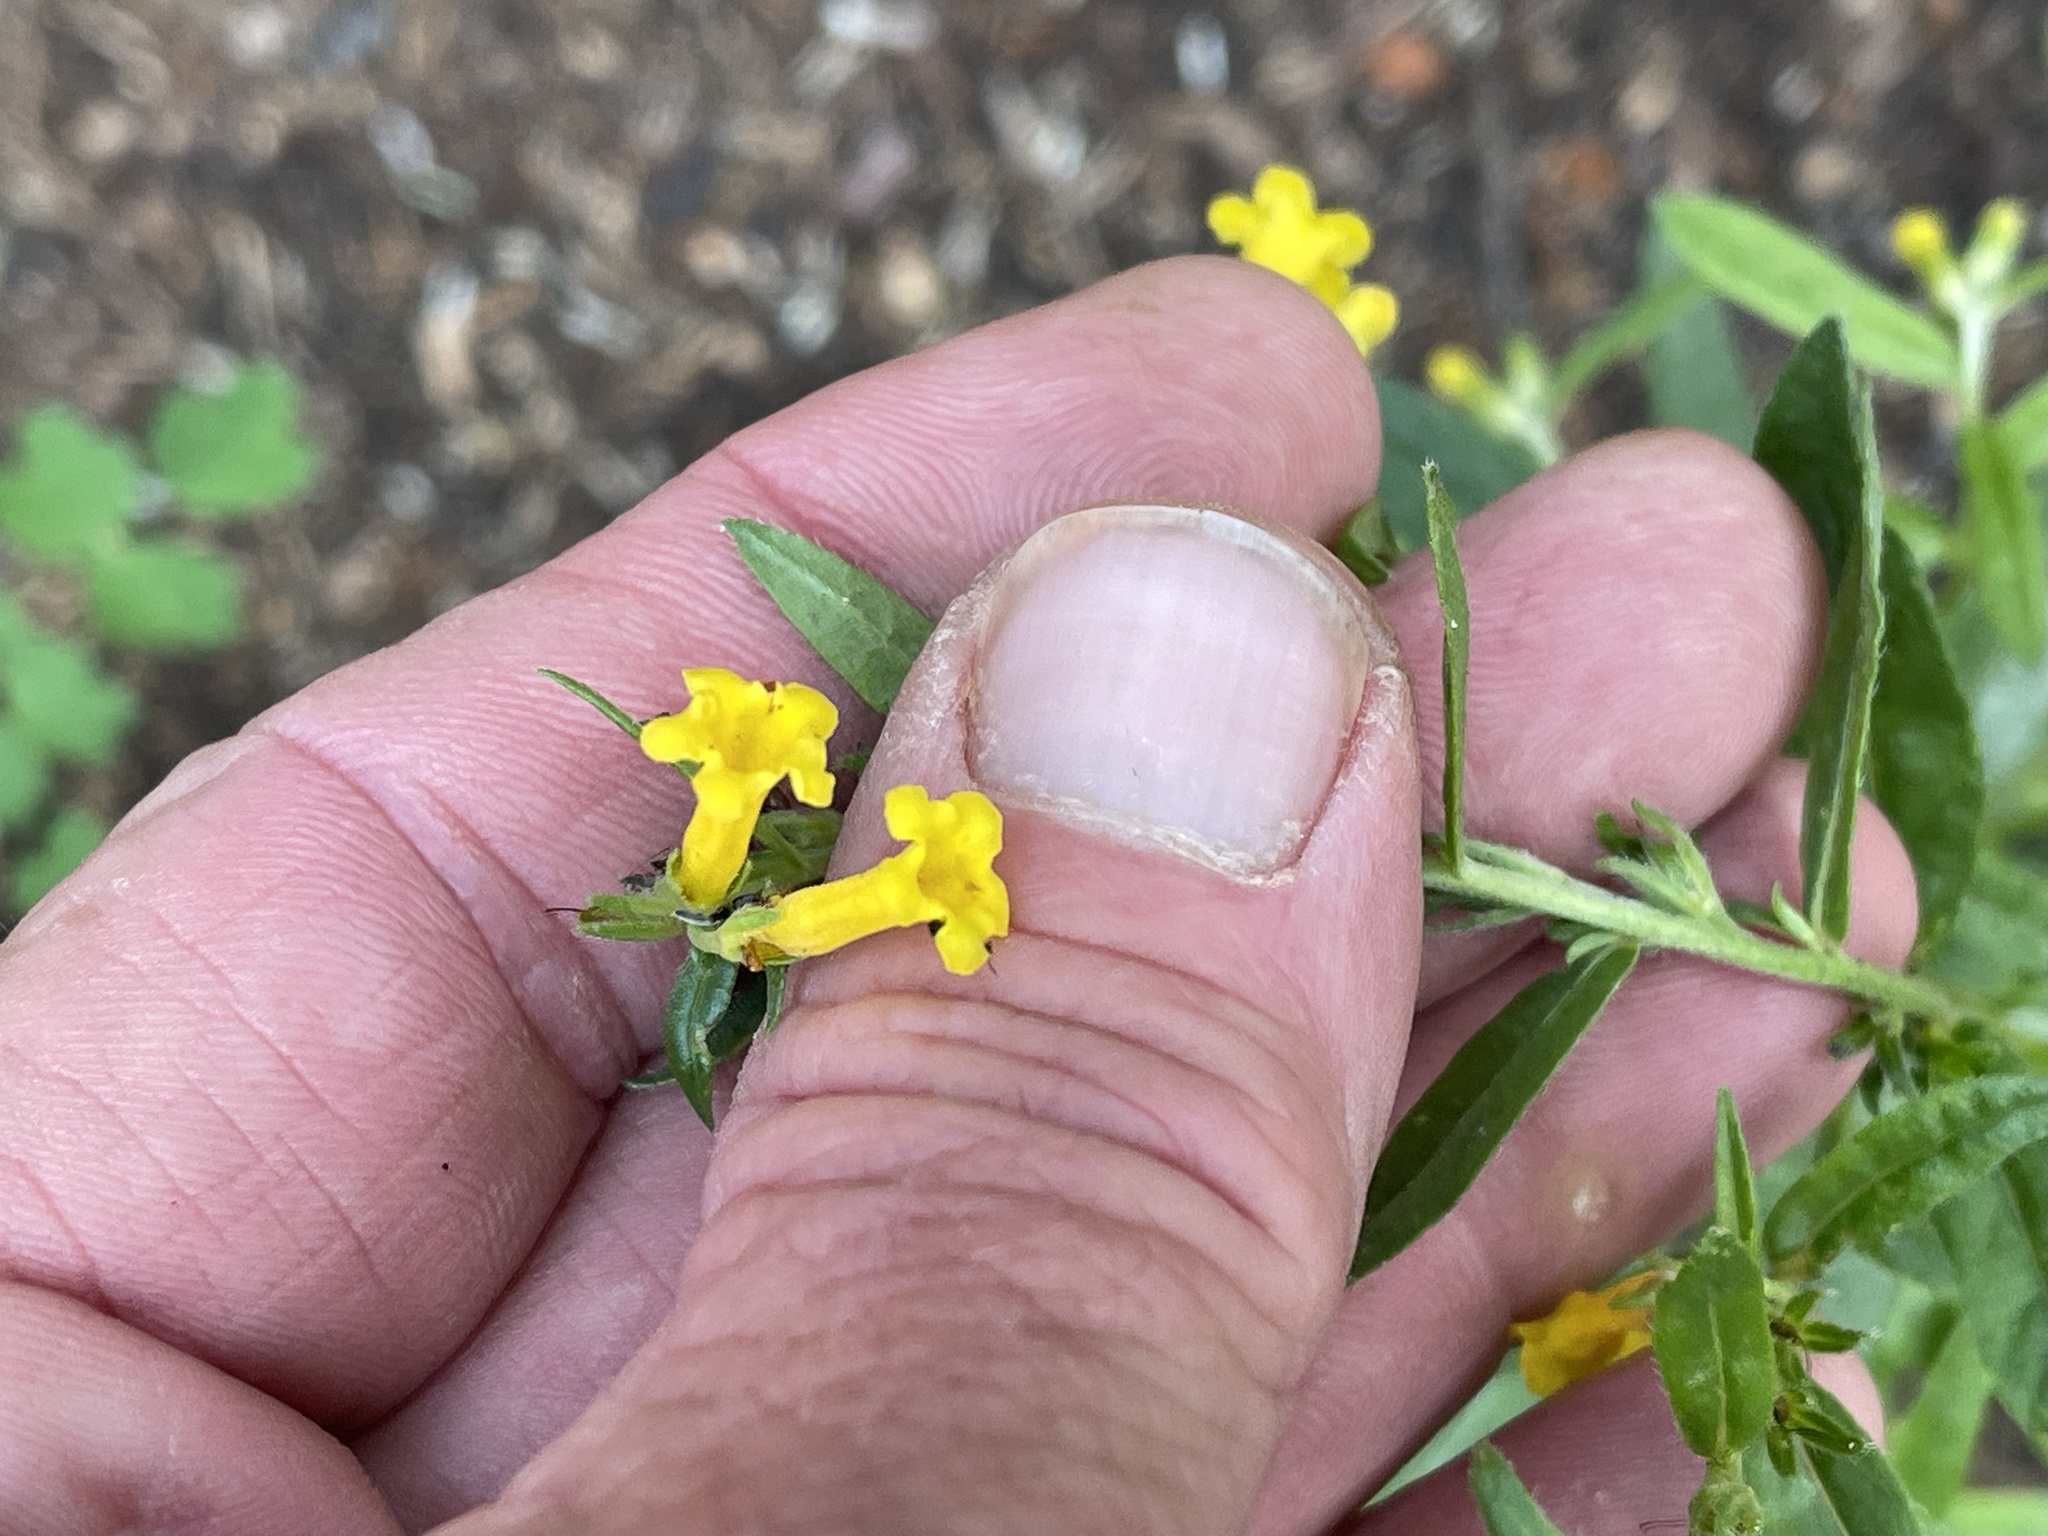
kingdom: Plantae
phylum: Tracheophyta
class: Magnoliopsida
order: Boraginales
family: Boraginaceae
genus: Lithospermum
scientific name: Lithospermum multiflorum
